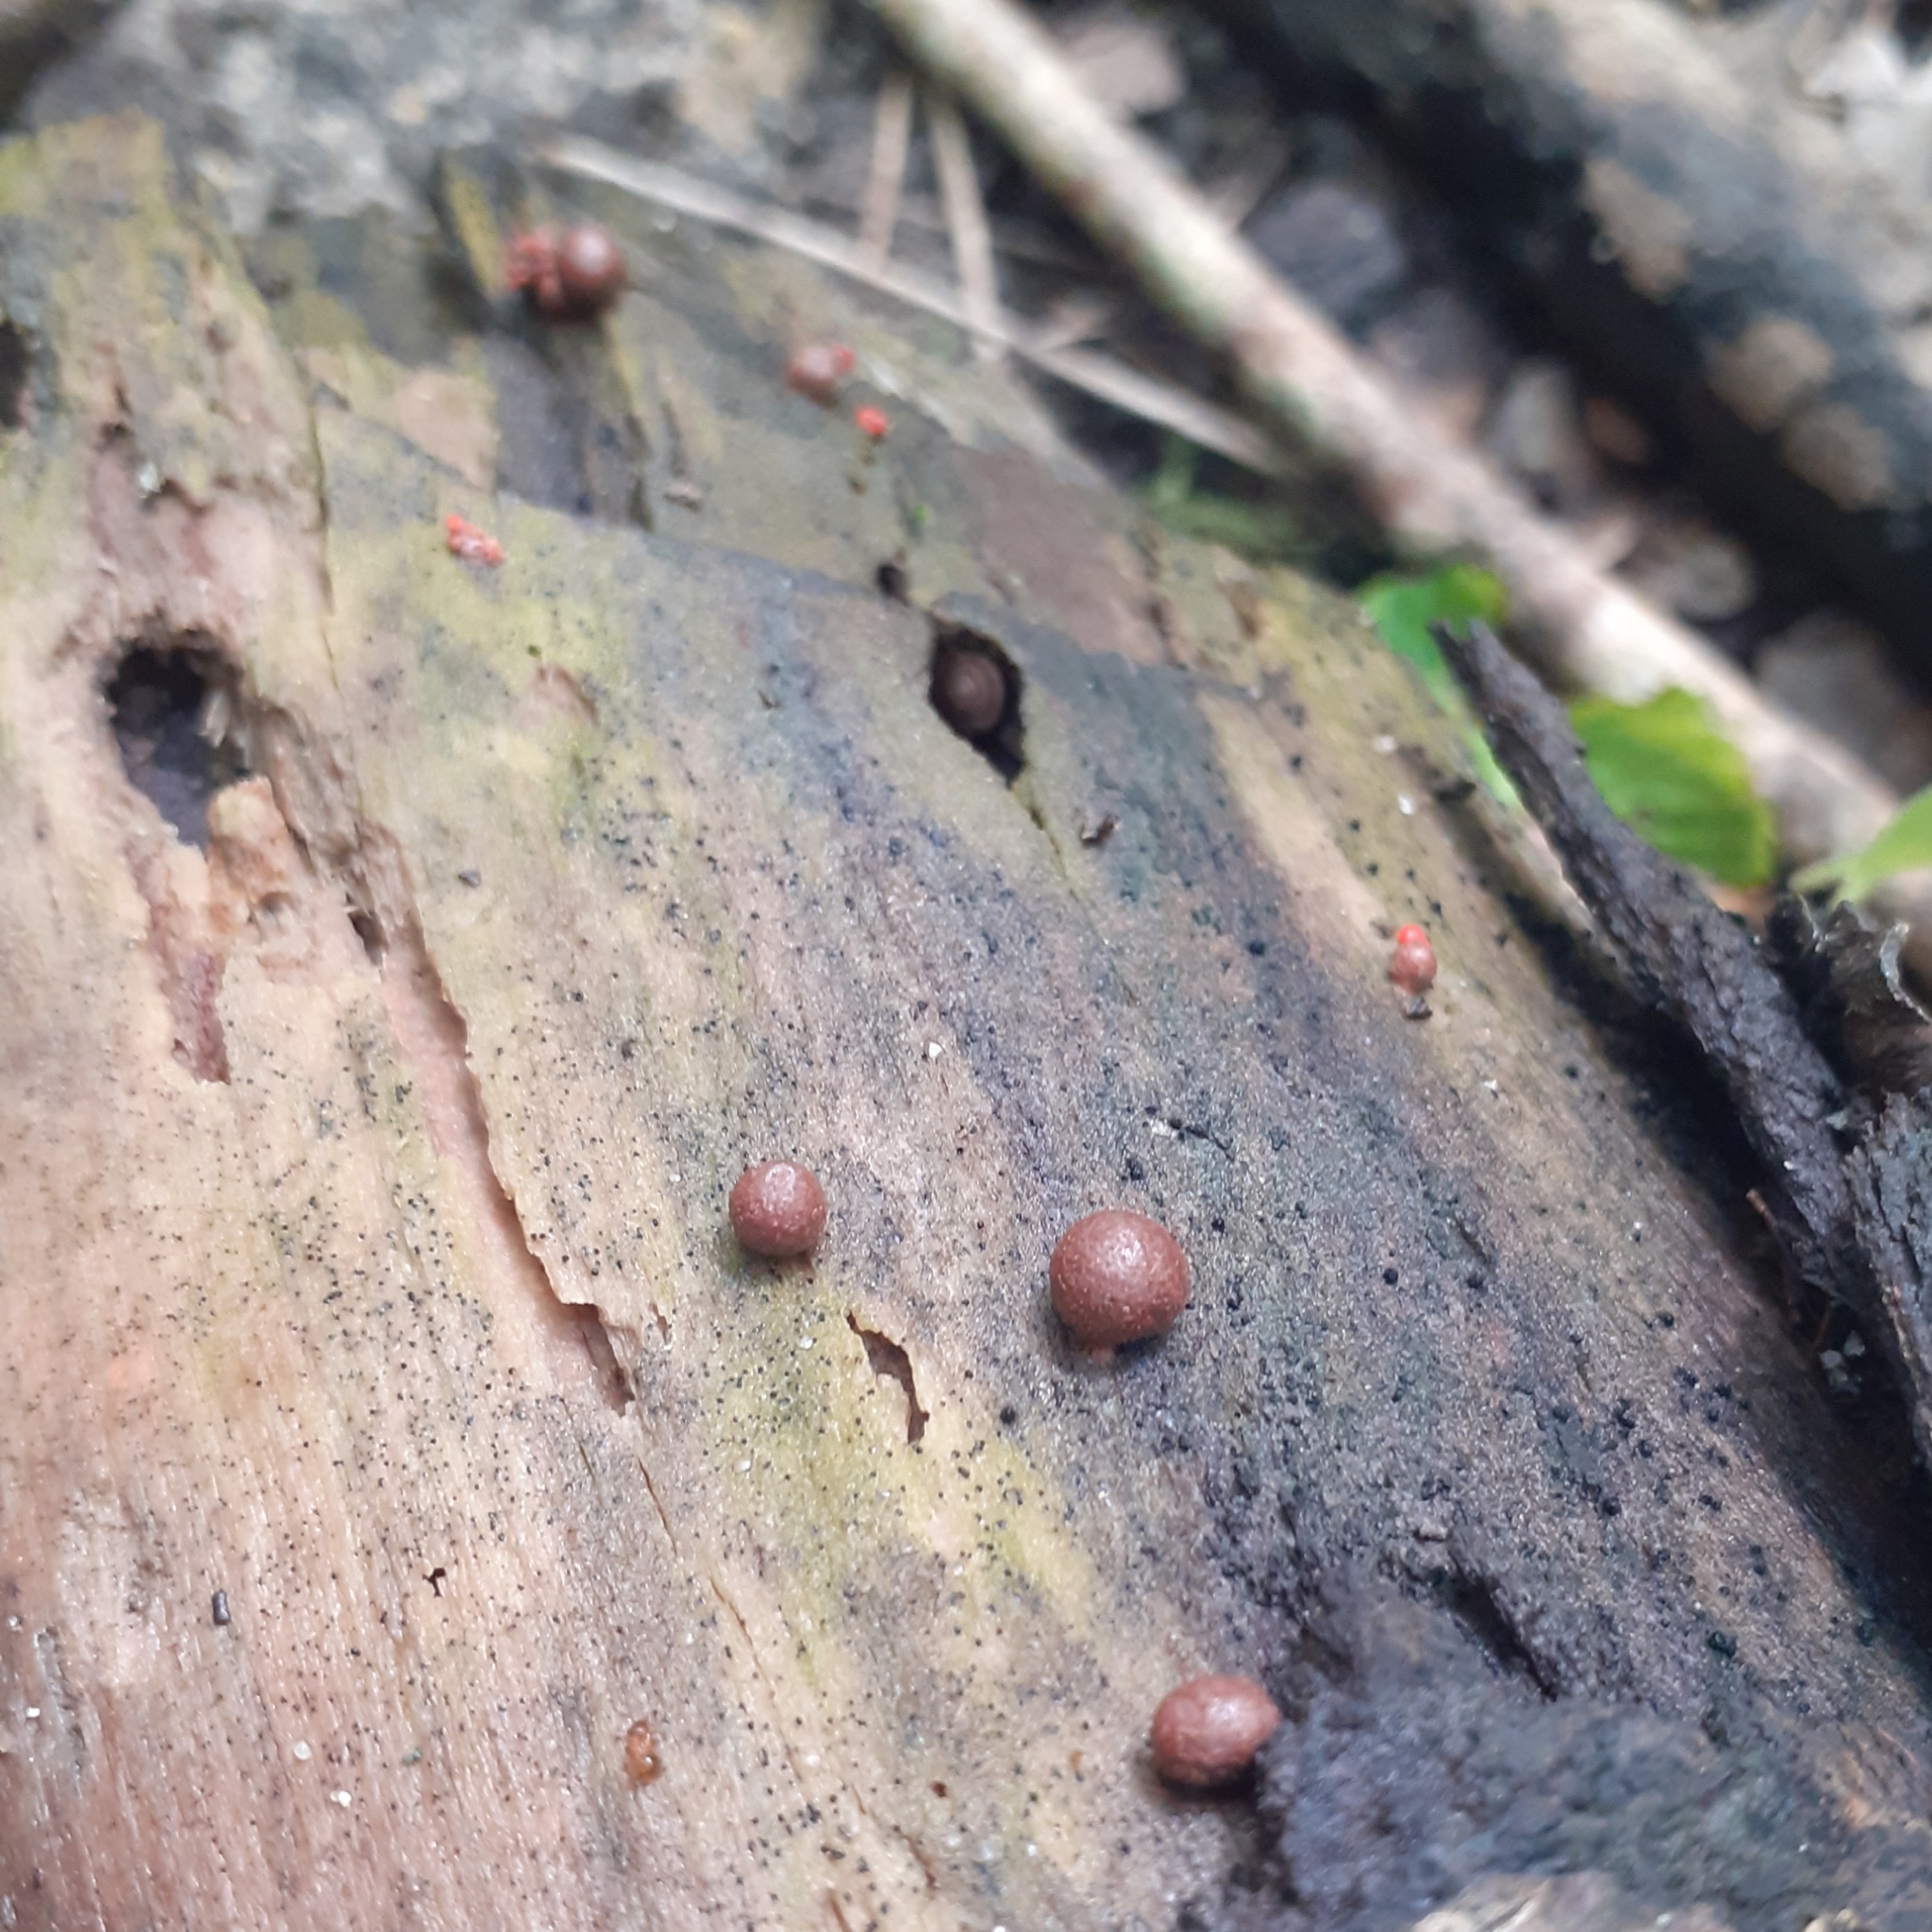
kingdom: Protozoa
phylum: Mycetozoa
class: Myxomycetes
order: Cribrariales
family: Tubiferaceae
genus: Lycogala
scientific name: Lycogala epidendrum
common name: Wolf's milk
